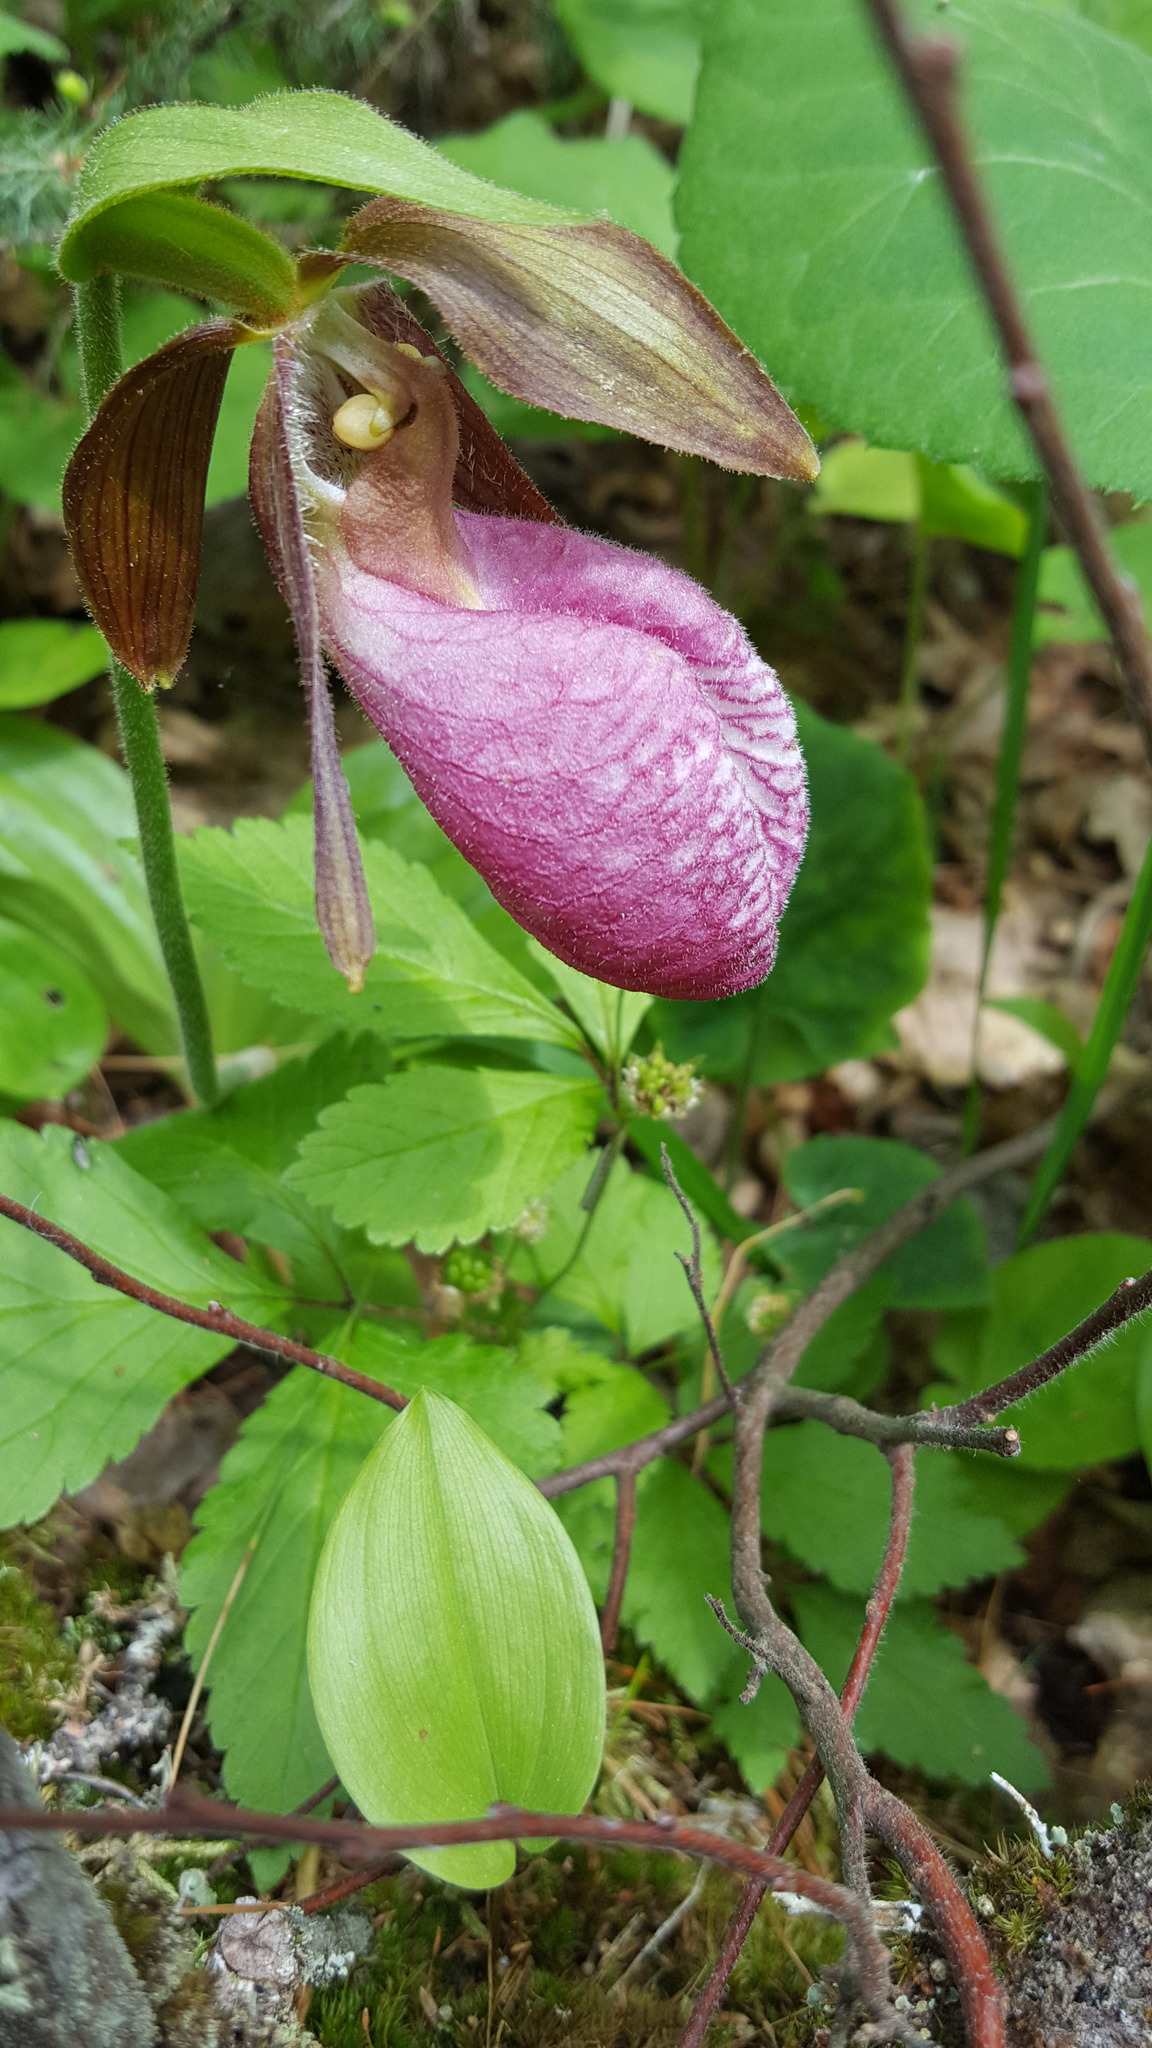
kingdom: Plantae
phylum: Tracheophyta
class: Liliopsida
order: Asparagales
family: Orchidaceae
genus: Cypripedium
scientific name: Cypripedium acaule
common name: Pink lady's-slipper
